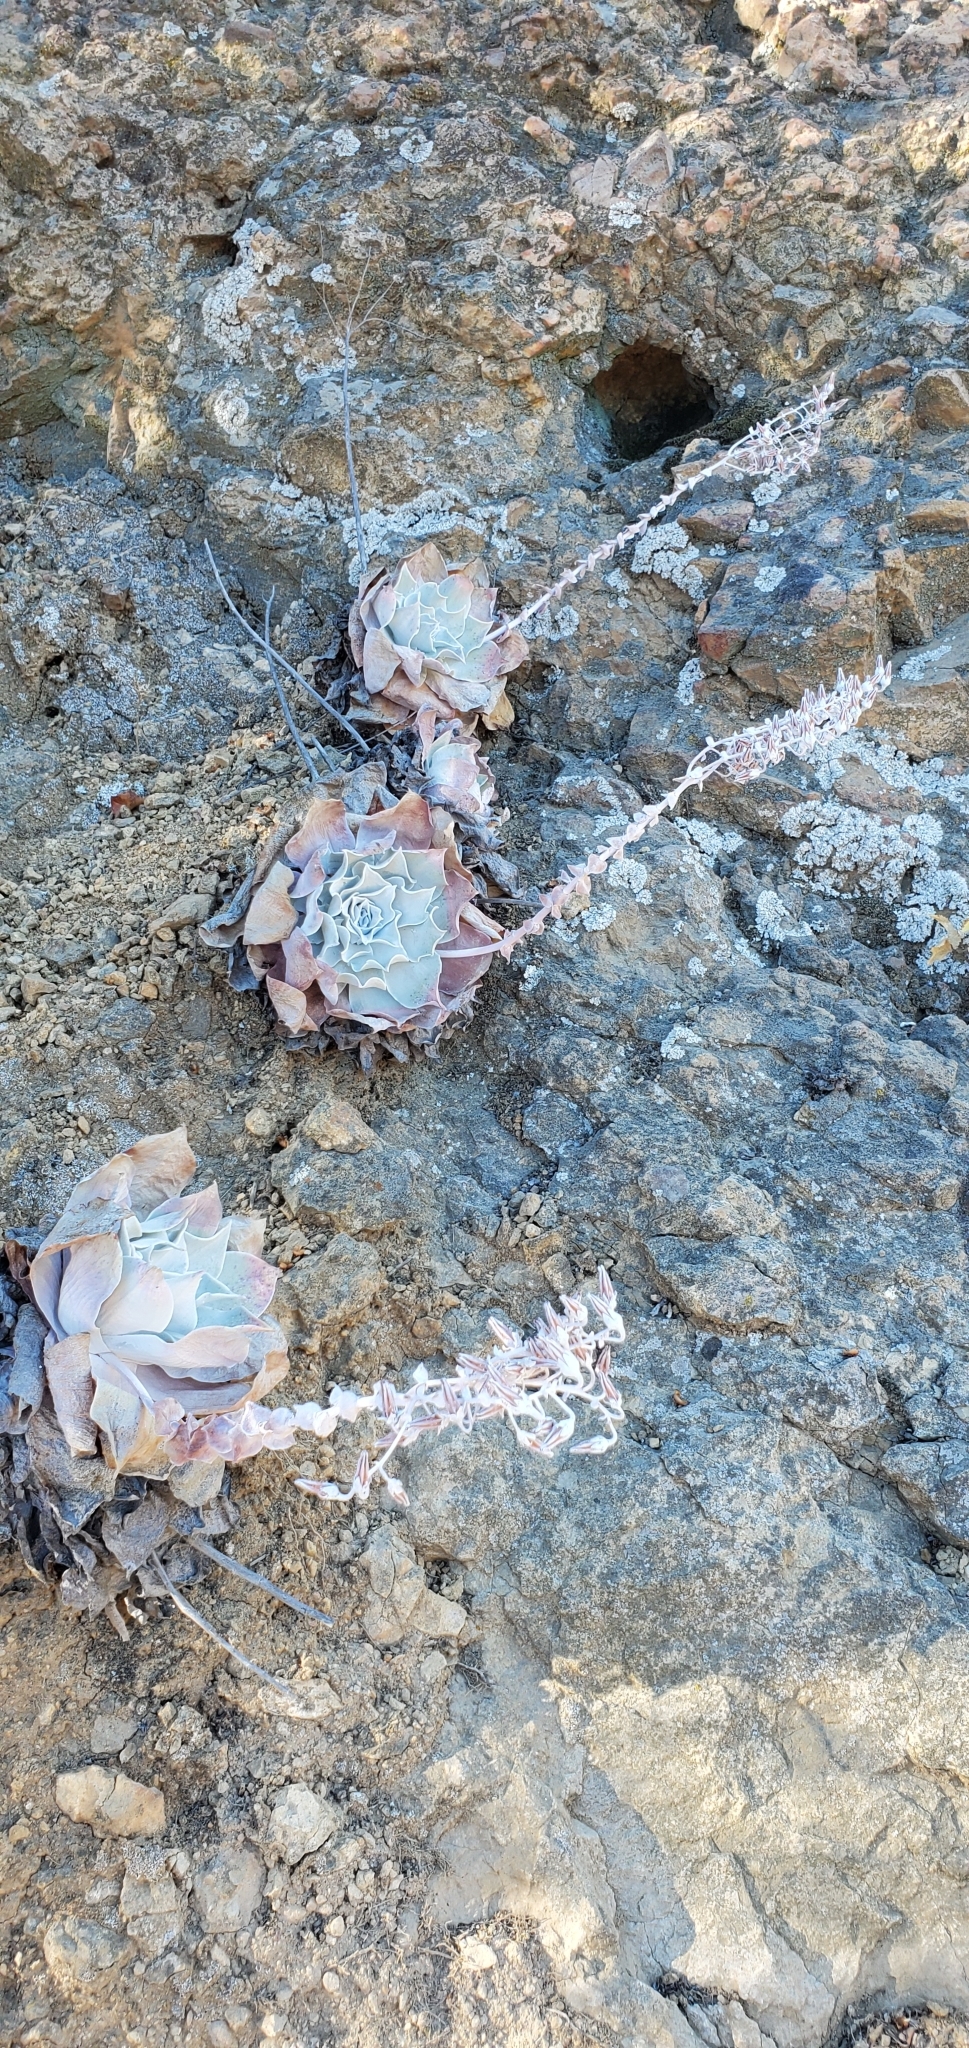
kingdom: Plantae
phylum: Tracheophyta
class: Magnoliopsida
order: Saxifragales
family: Crassulaceae
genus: Dudleya
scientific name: Dudleya pulverulenta
